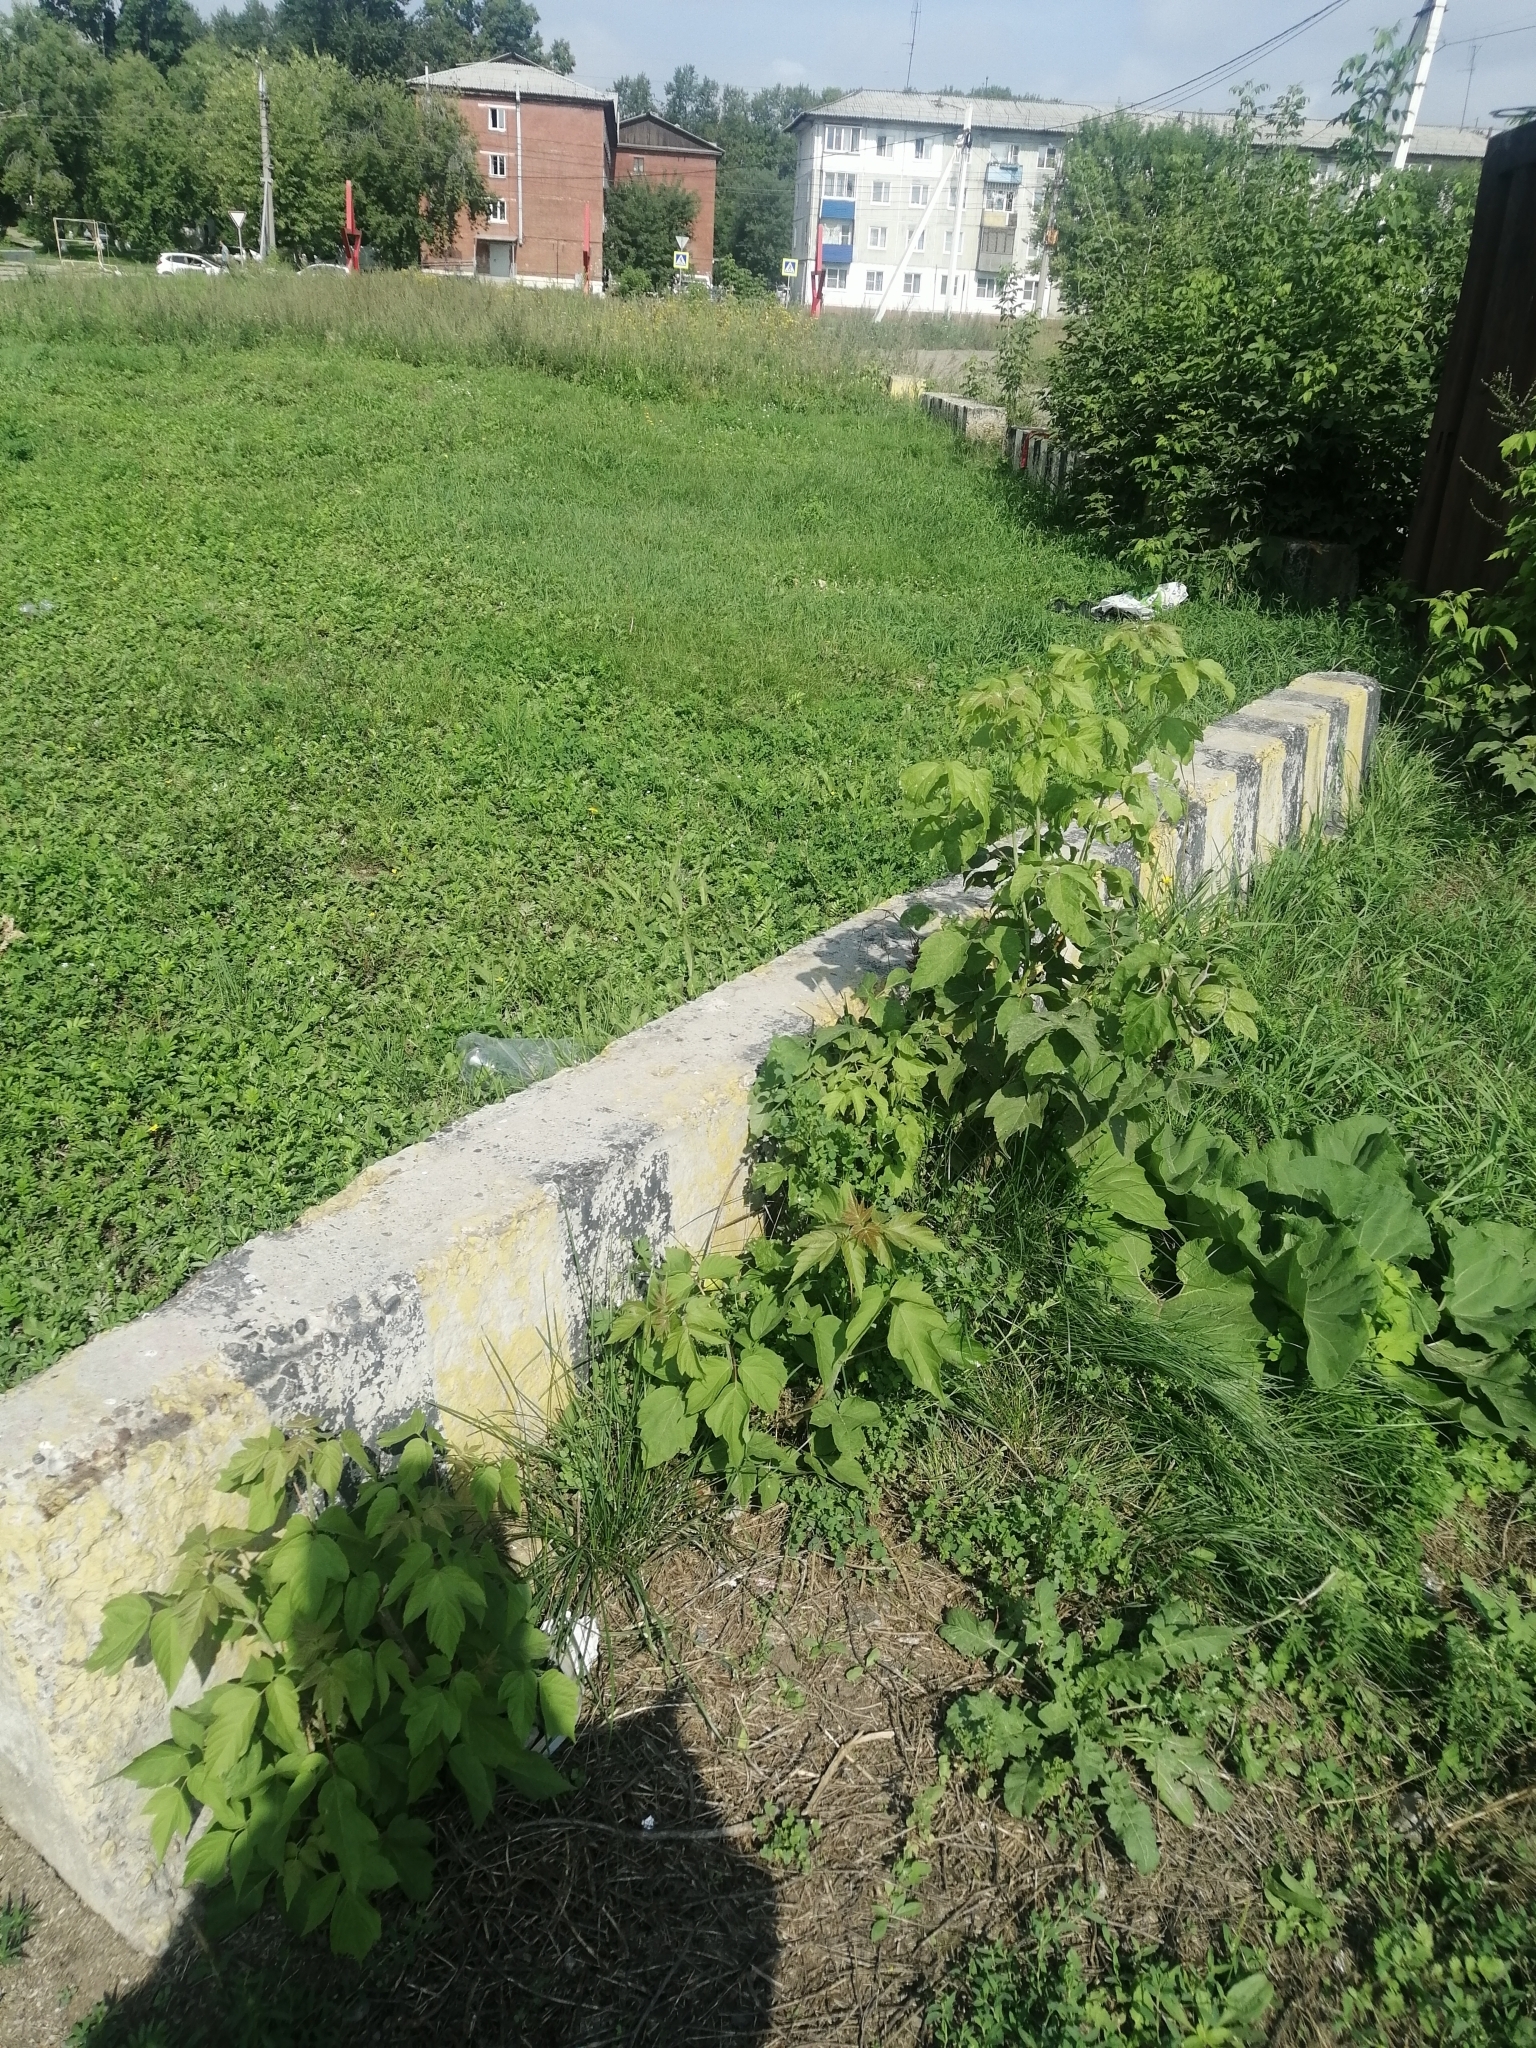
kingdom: Plantae
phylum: Tracheophyta
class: Magnoliopsida
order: Sapindales
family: Sapindaceae
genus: Acer
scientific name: Acer negundo
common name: Ashleaf maple
